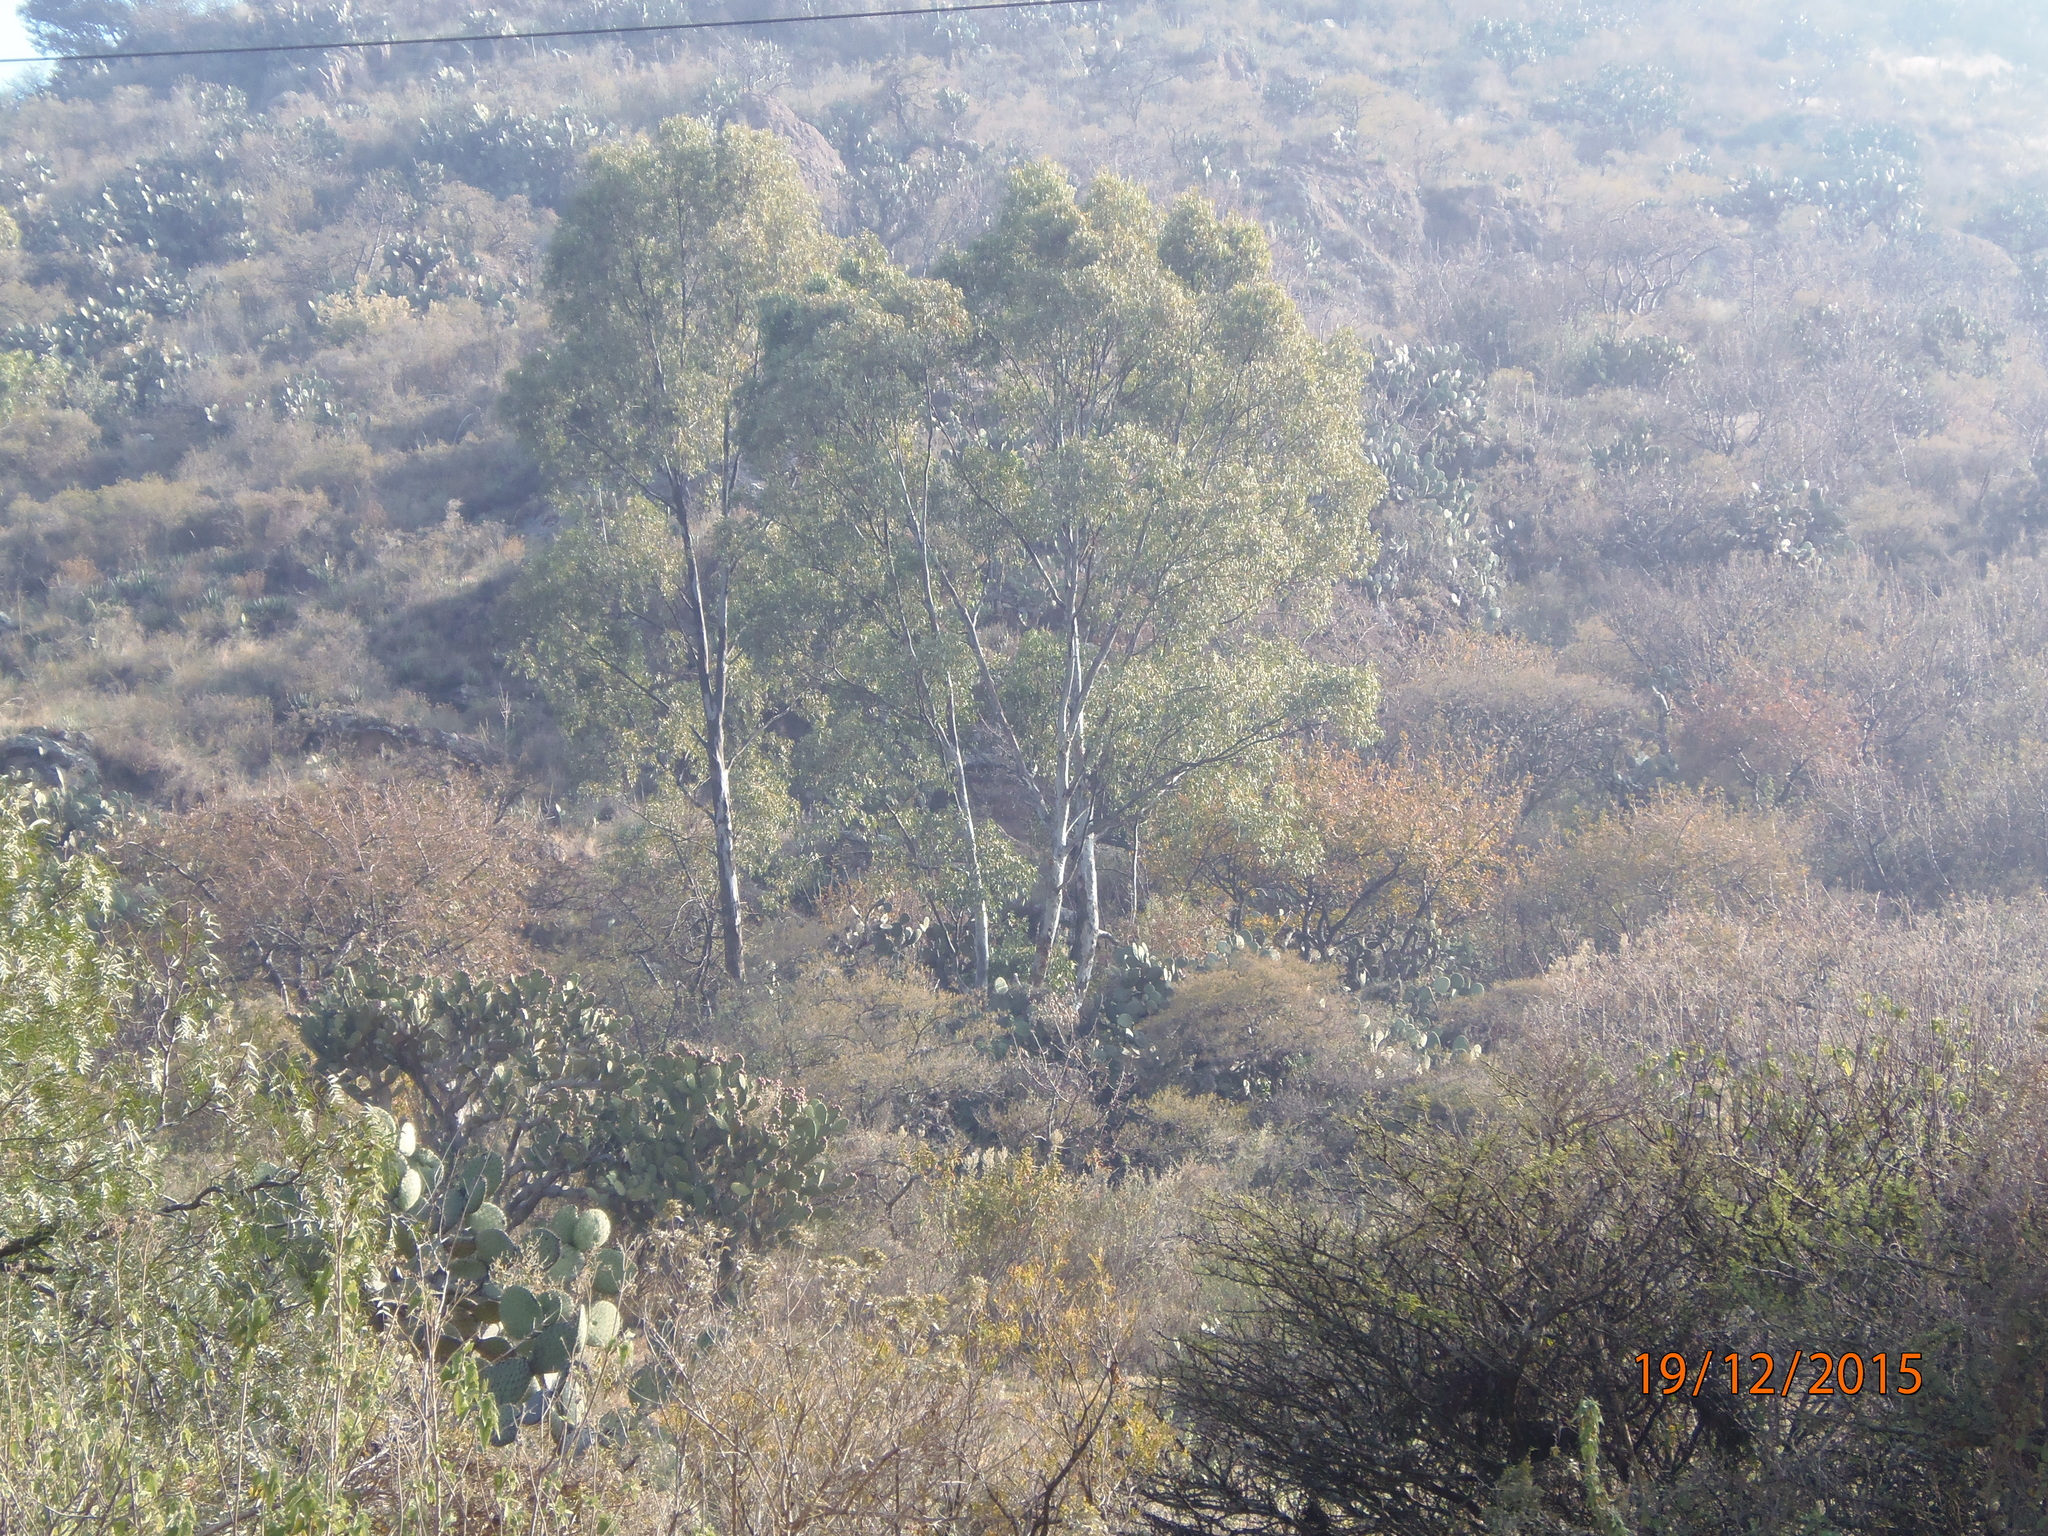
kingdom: Plantae
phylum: Tracheophyta
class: Magnoliopsida
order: Myrtales
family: Myrtaceae
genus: Eucalyptus
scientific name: Eucalyptus
